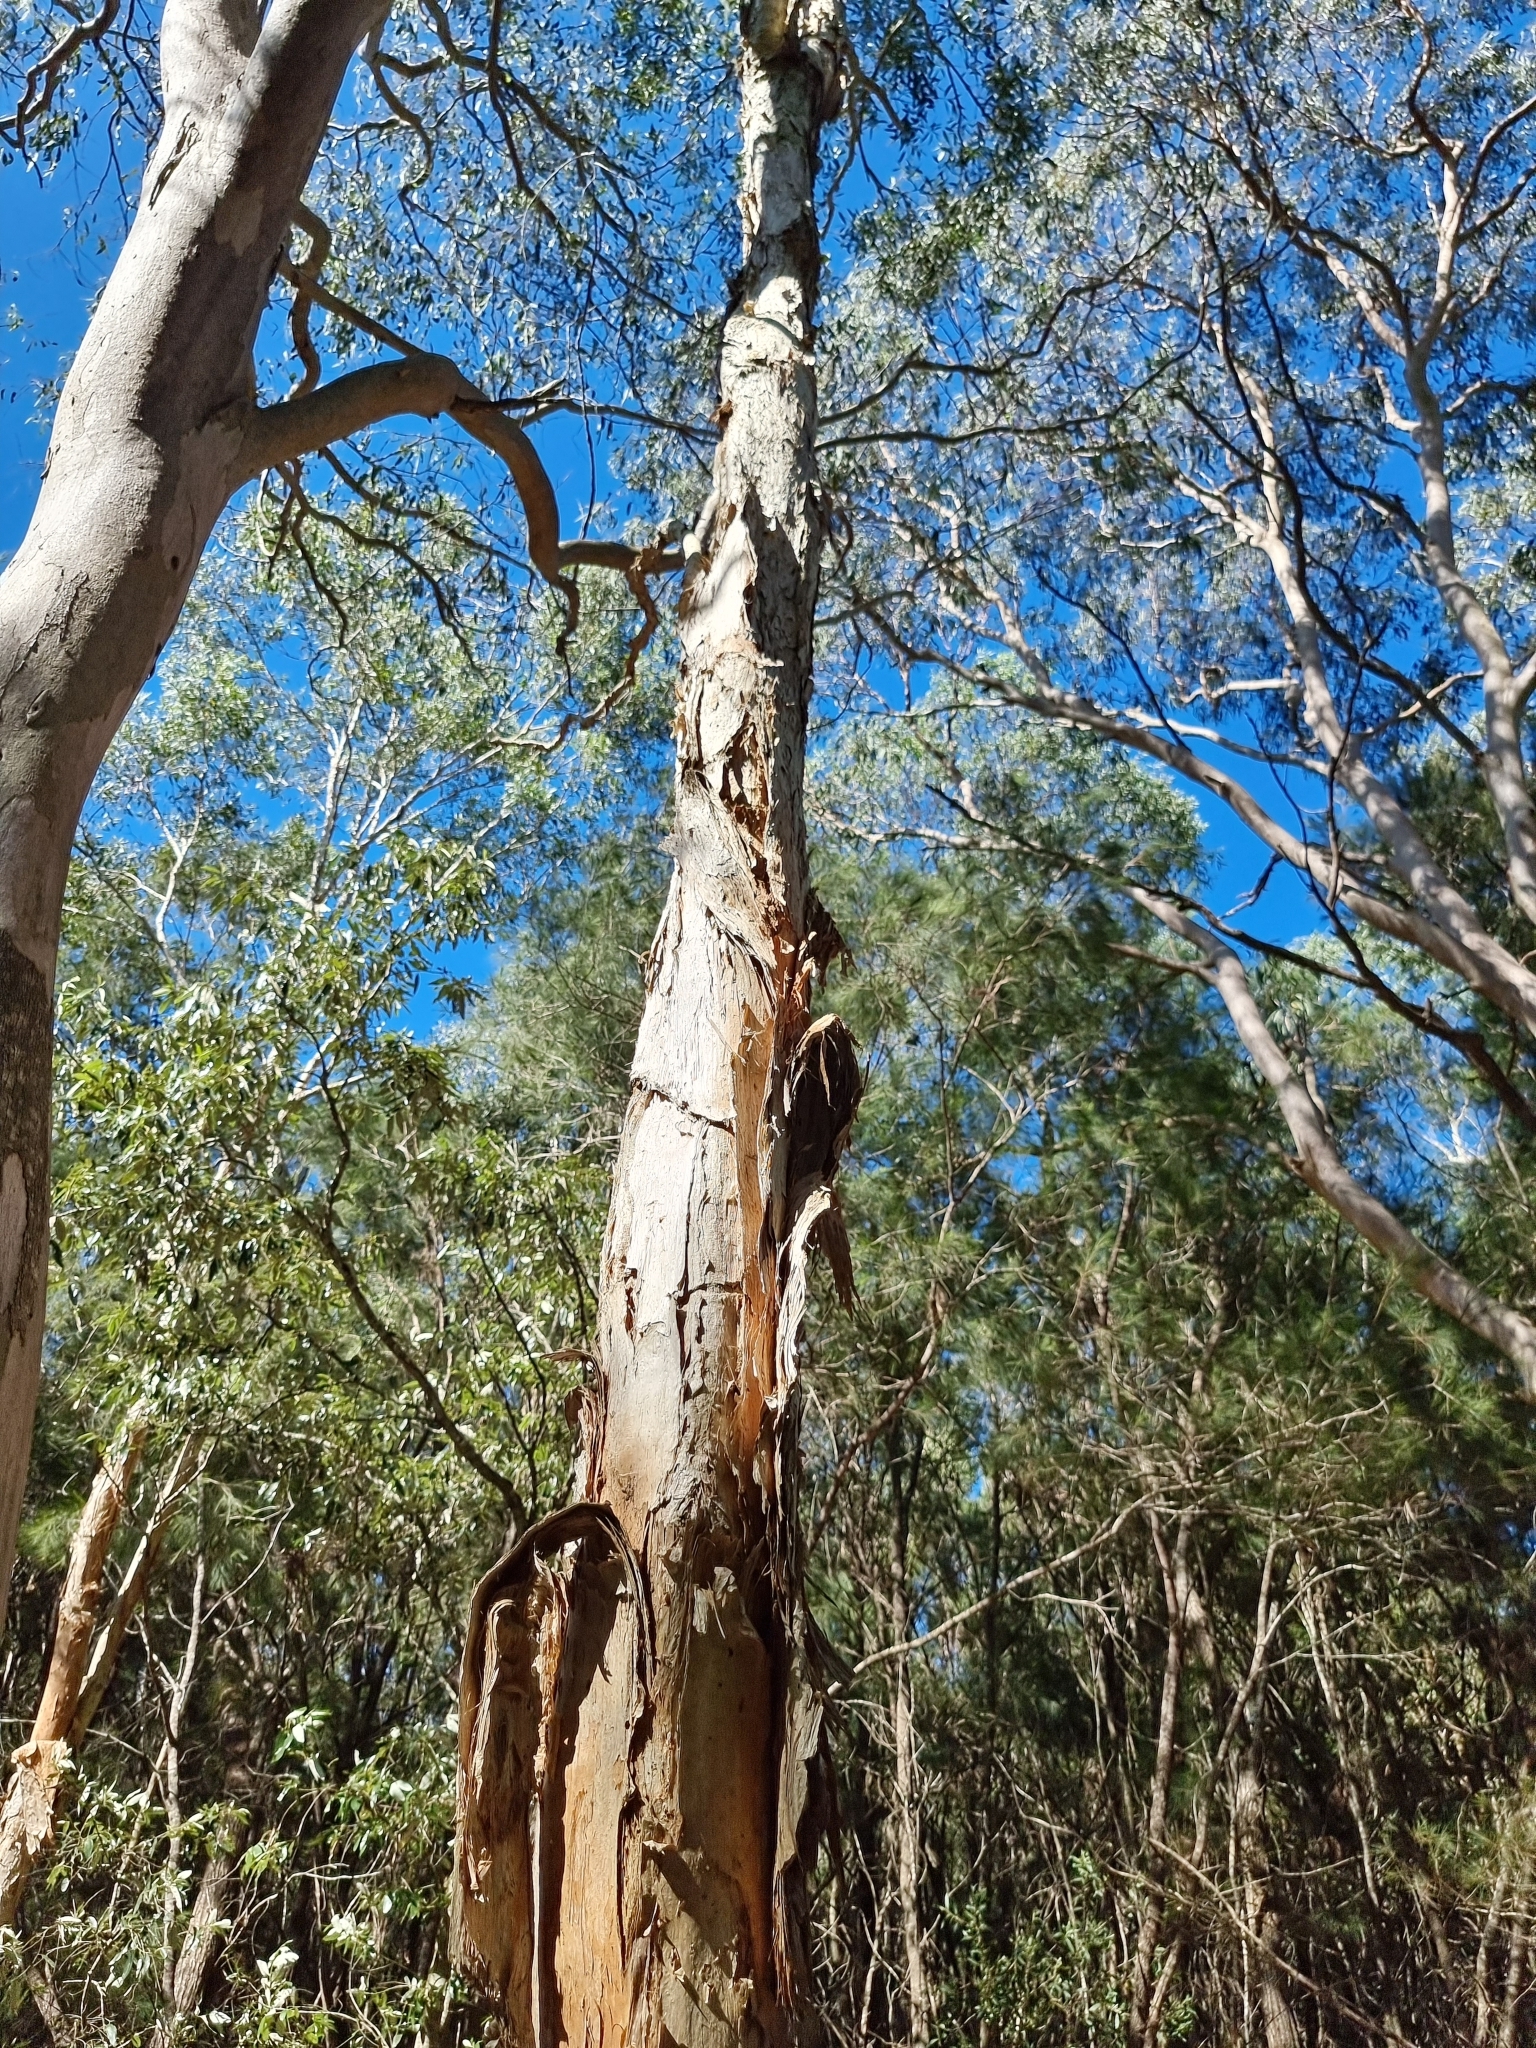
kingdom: Plantae
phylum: Tracheophyta
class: Magnoliopsida
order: Myrtales
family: Myrtaceae
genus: Melaleuca
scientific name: Melaleuca quinquenervia
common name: Punktree
